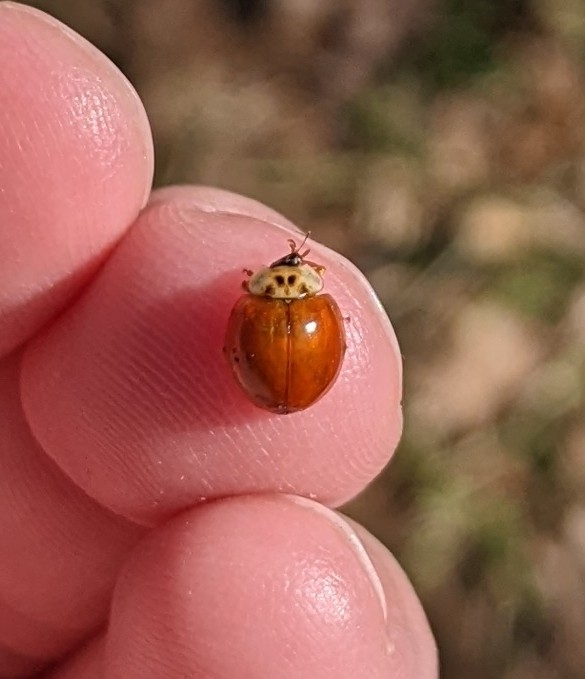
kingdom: Animalia
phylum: Arthropoda
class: Insecta
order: Coleoptera
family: Coccinellidae
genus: Harmonia
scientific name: Harmonia axyridis
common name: Harlequin ladybird
